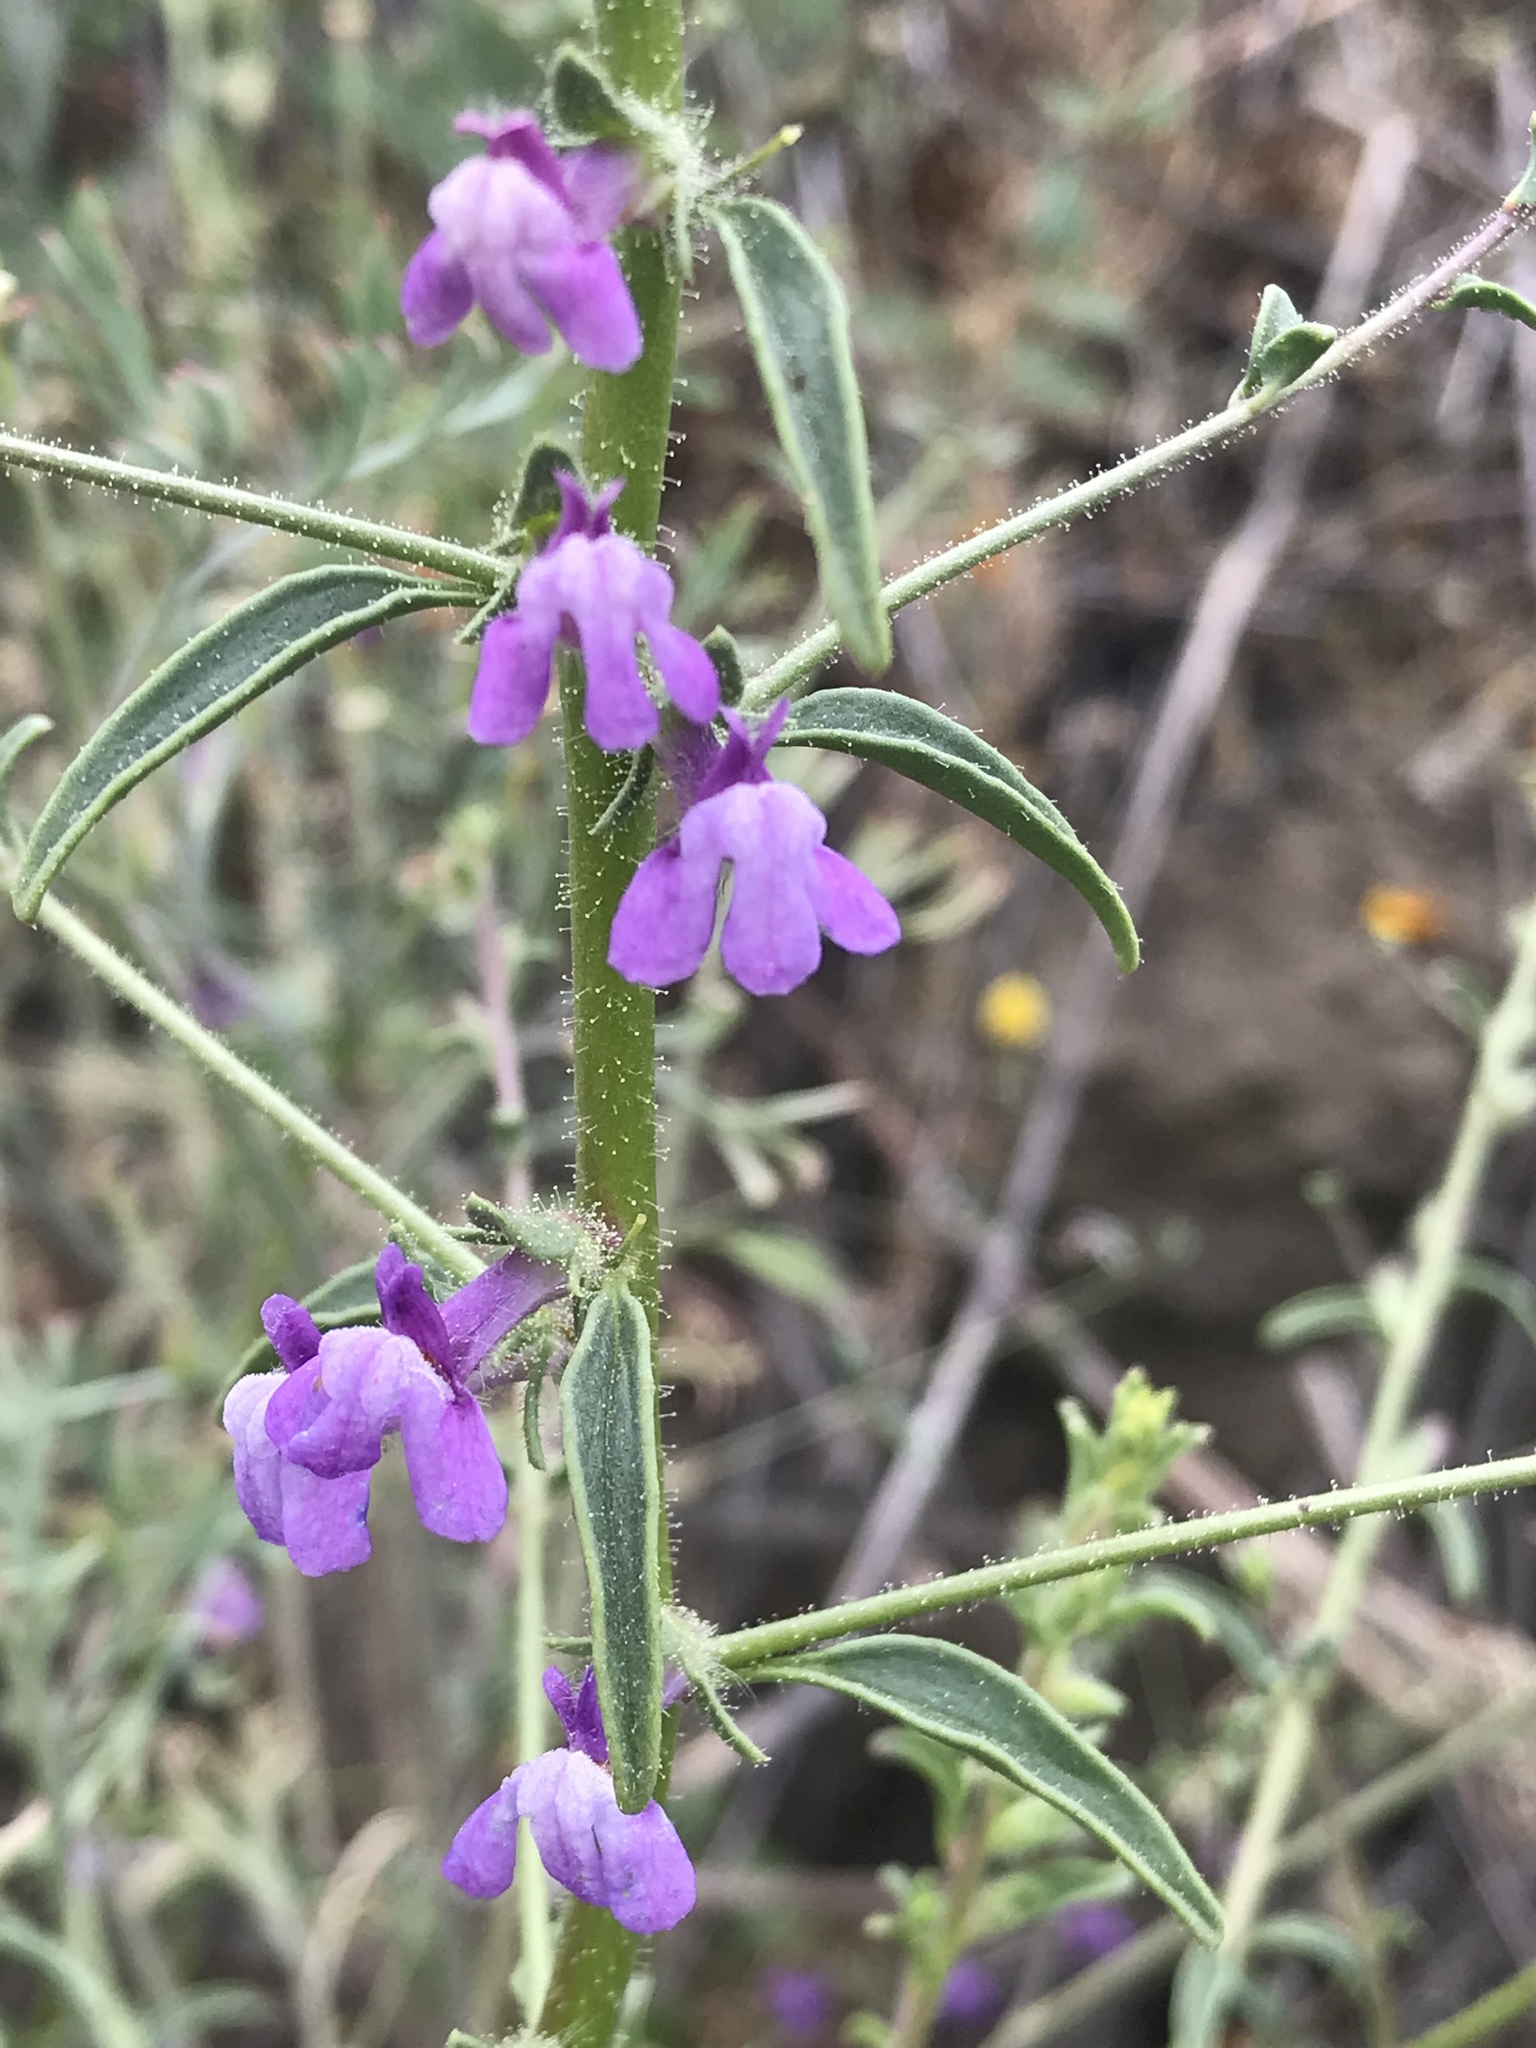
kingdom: Plantae
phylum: Tracheophyta
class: Magnoliopsida
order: Lamiales
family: Plantaginaceae
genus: Sairocarpus
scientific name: Sairocarpus vexillocalyculatus
